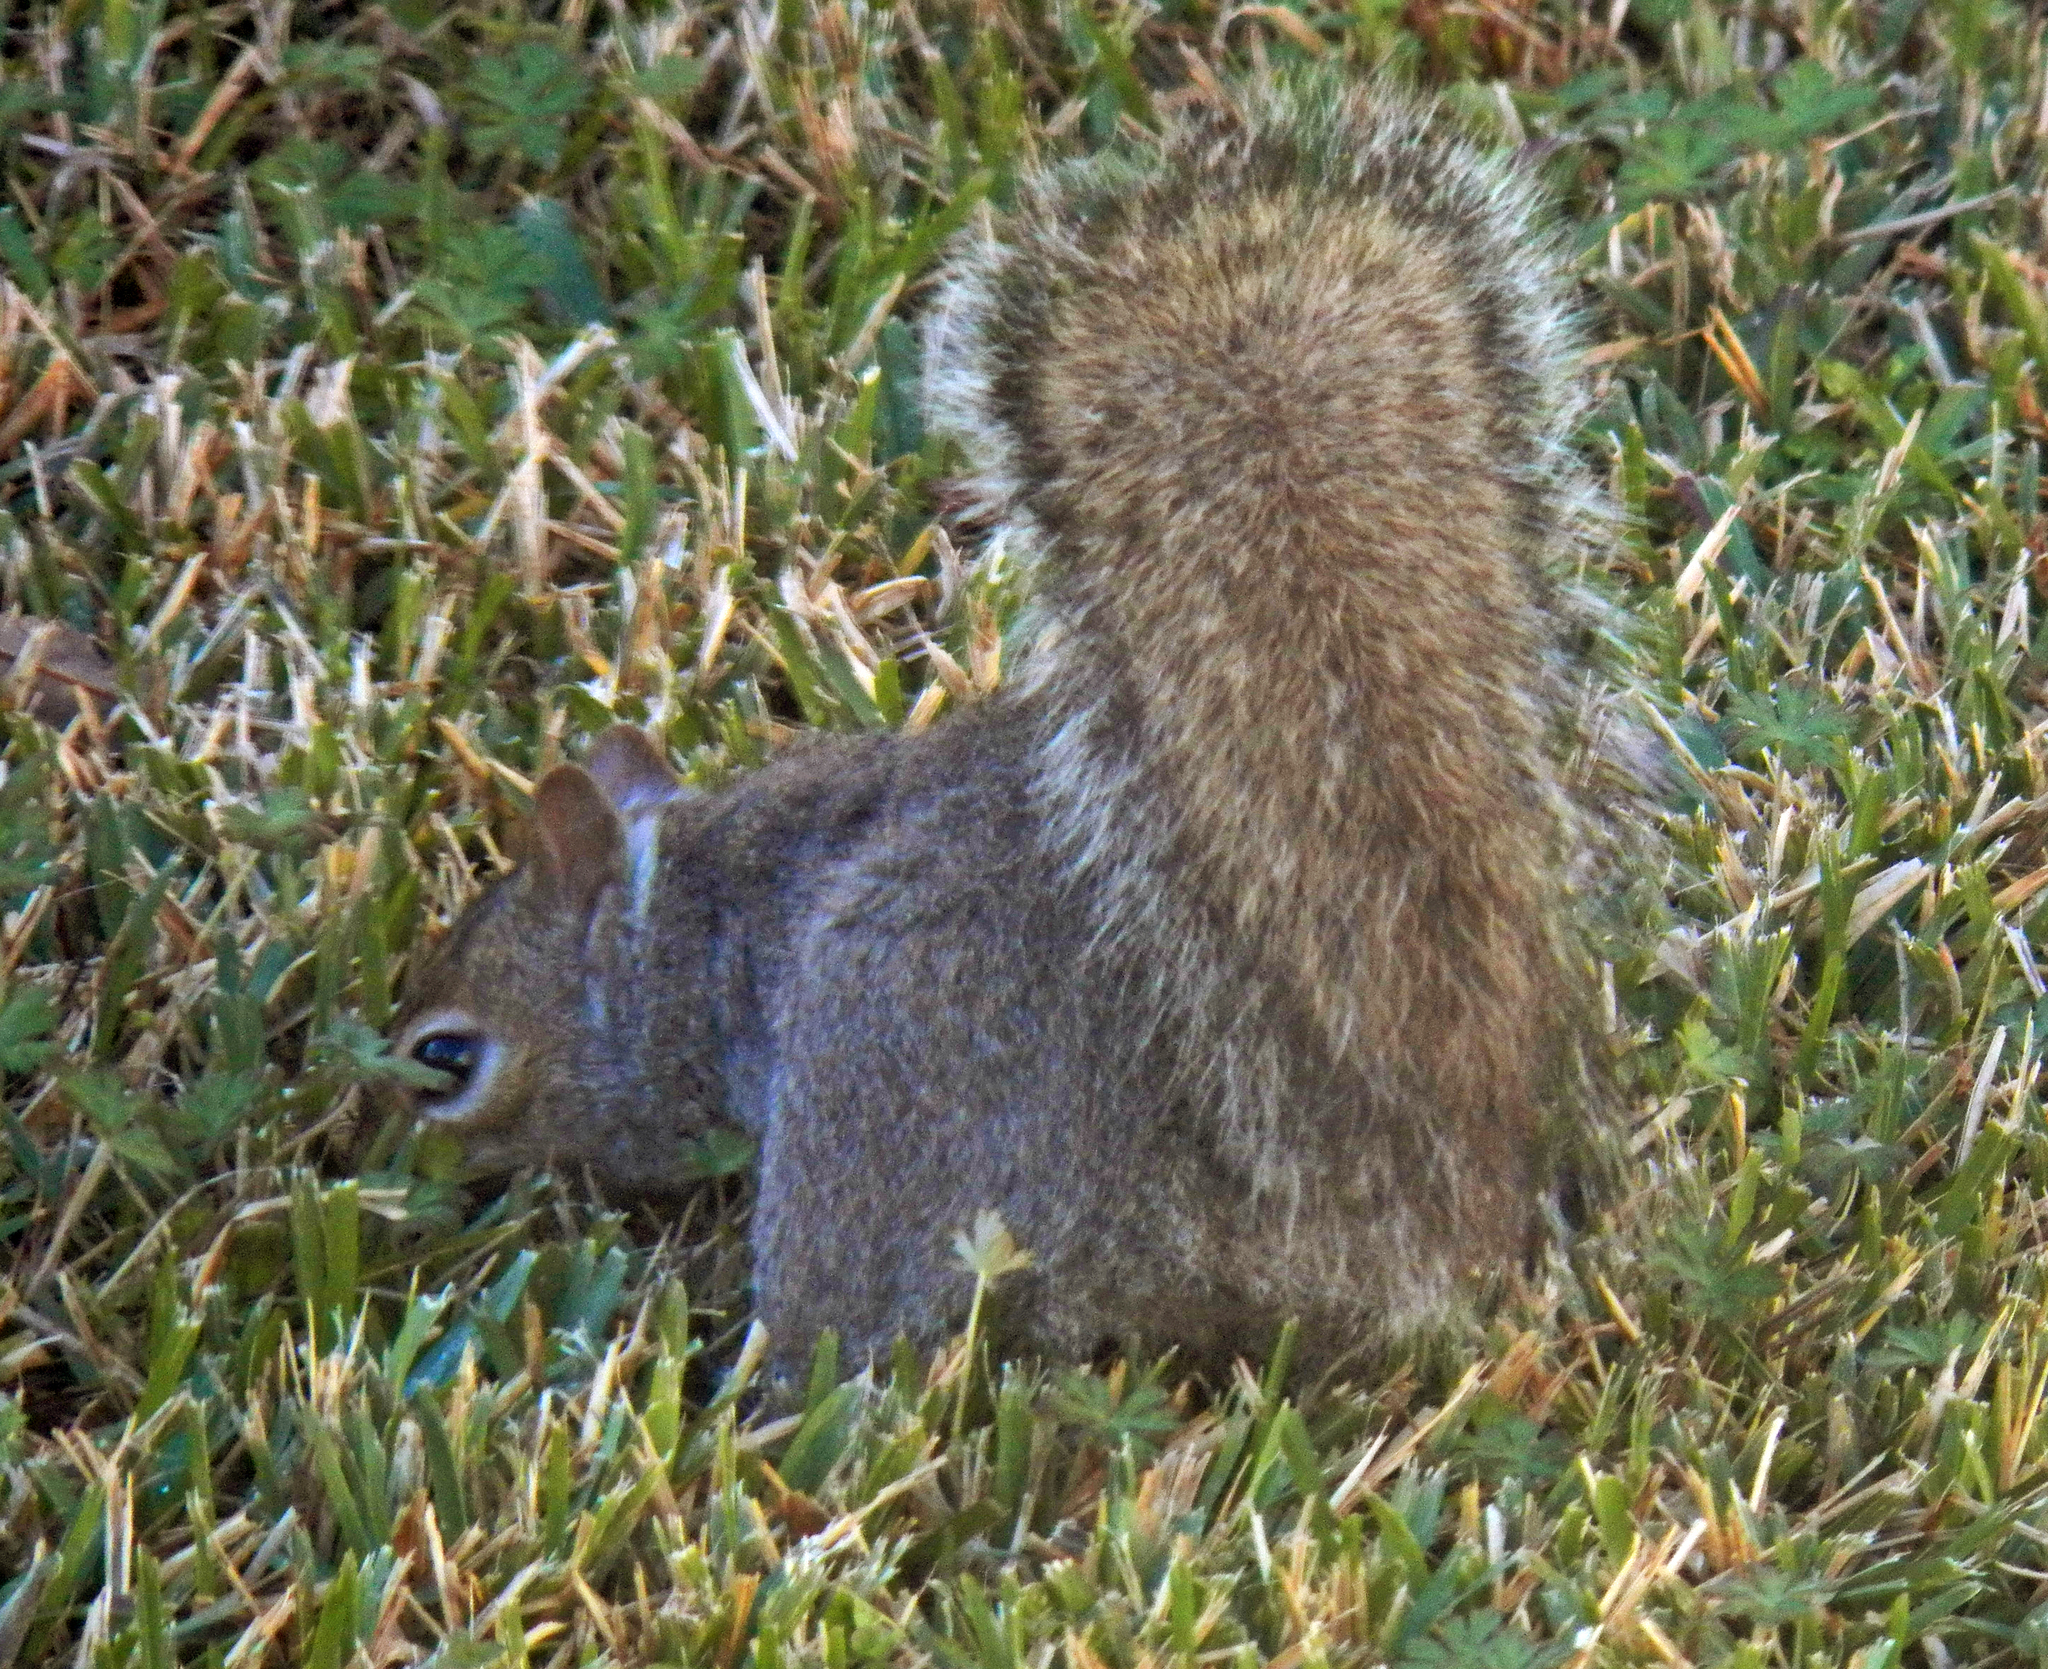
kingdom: Animalia
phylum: Chordata
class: Mammalia
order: Rodentia
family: Sciuridae
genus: Sciurus
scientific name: Sciurus carolinensis
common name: Eastern gray squirrel
